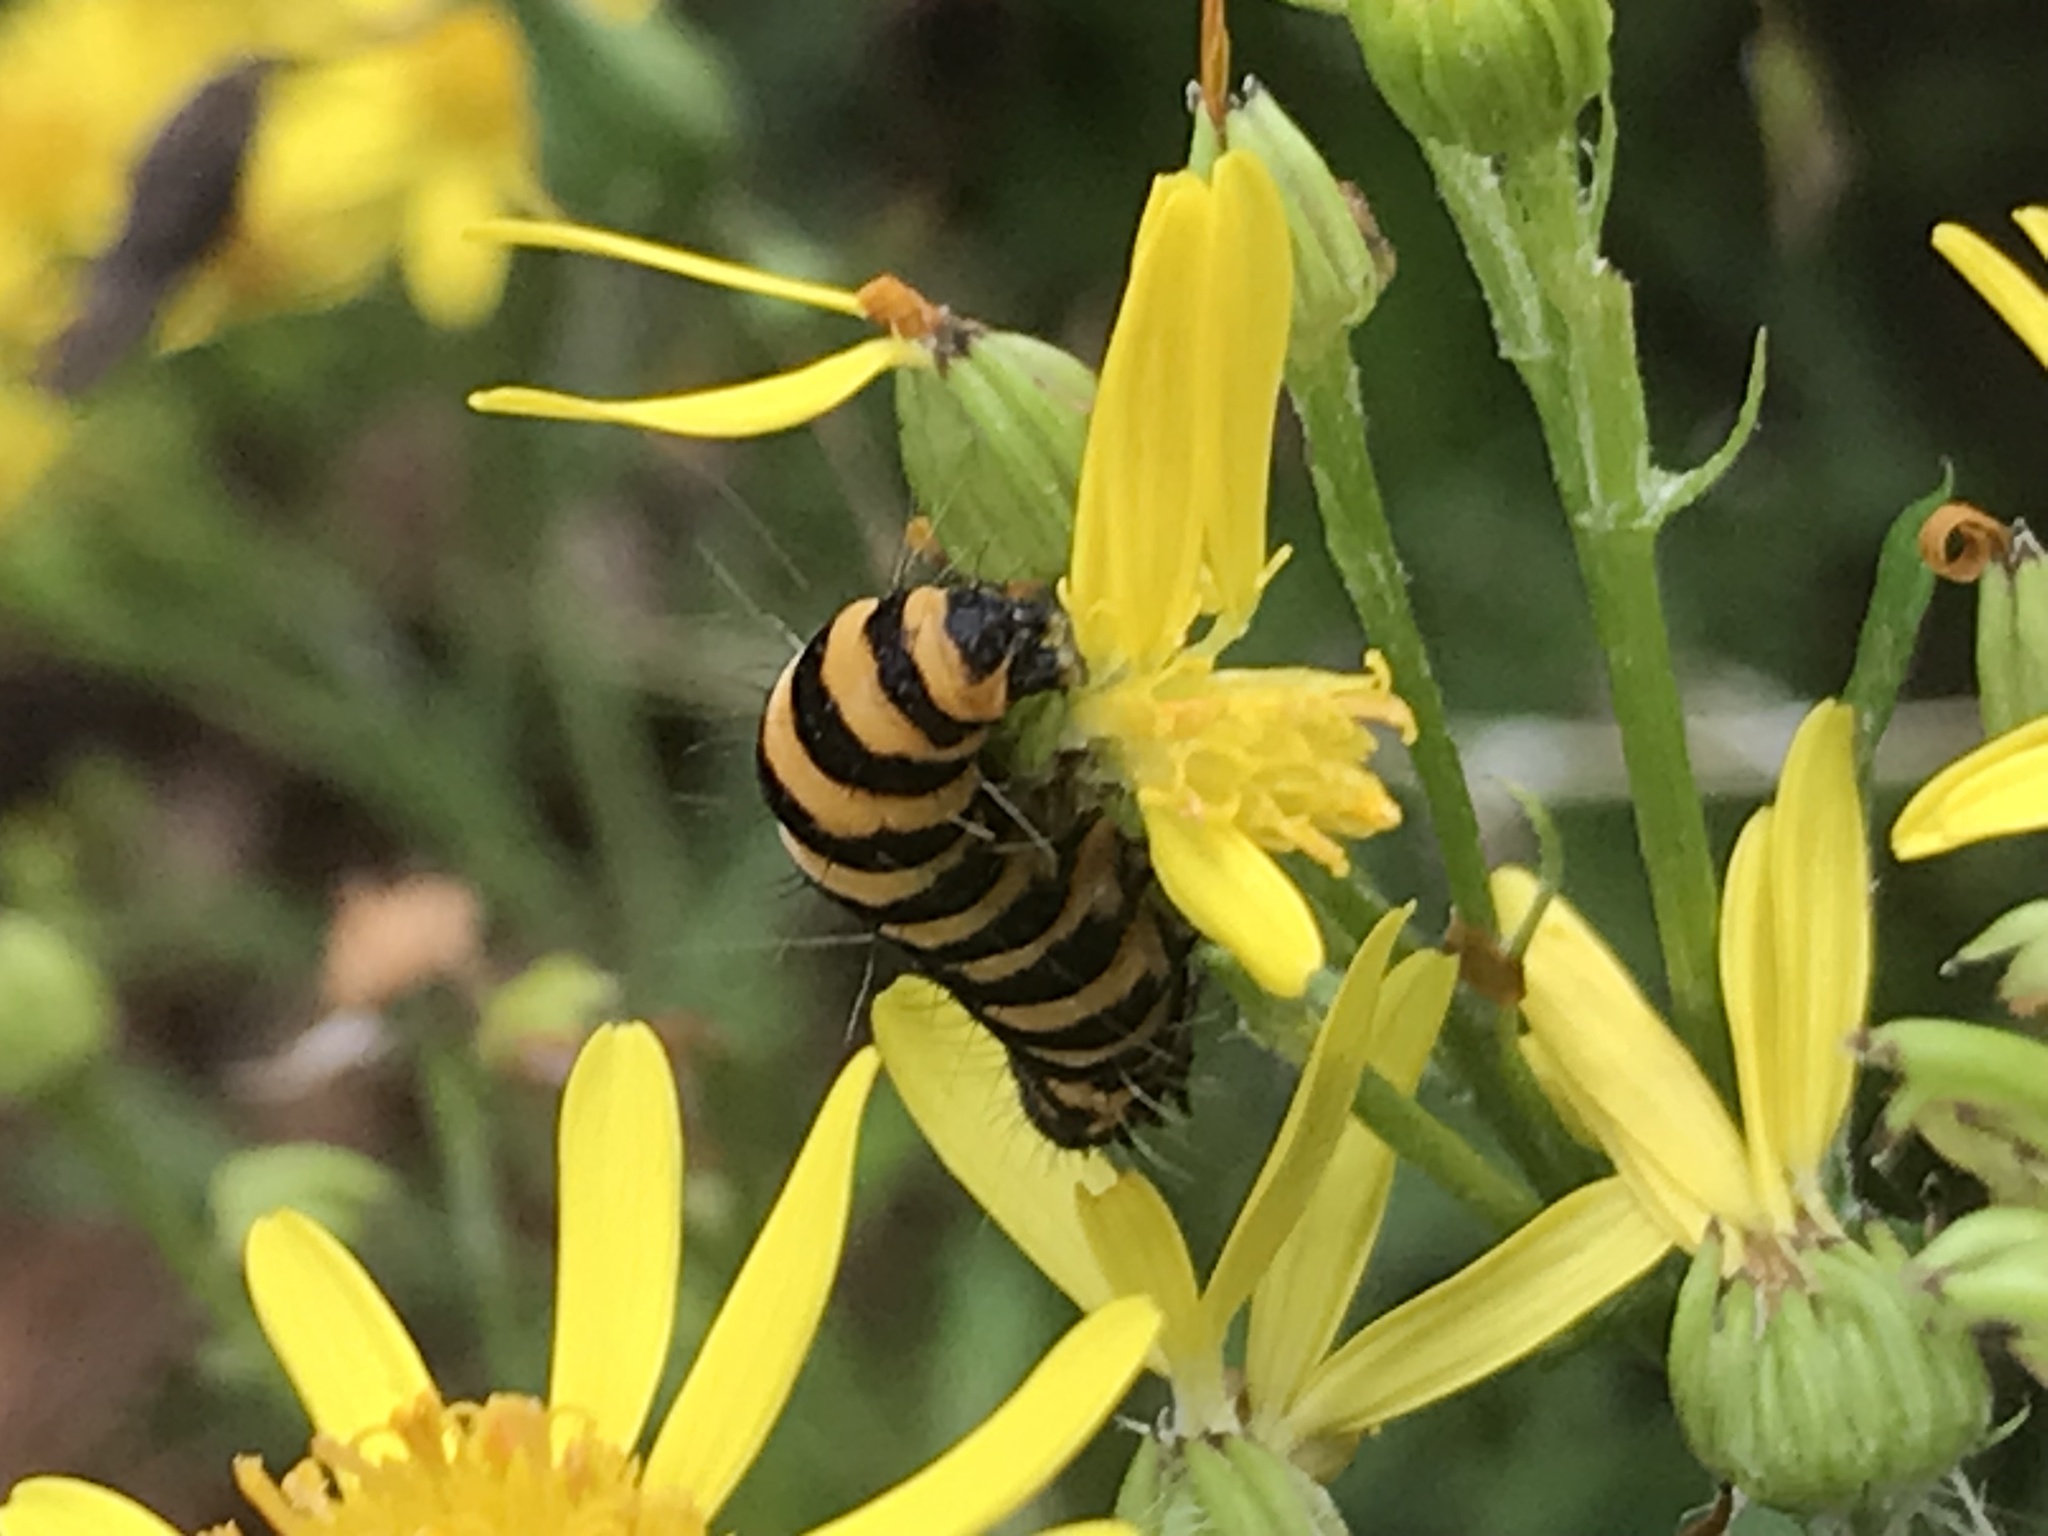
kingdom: Animalia
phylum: Arthropoda
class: Insecta
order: Lepidoptera
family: Erebidae
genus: Tyria
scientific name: Tyria jacobaeae
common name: Cinnabar
